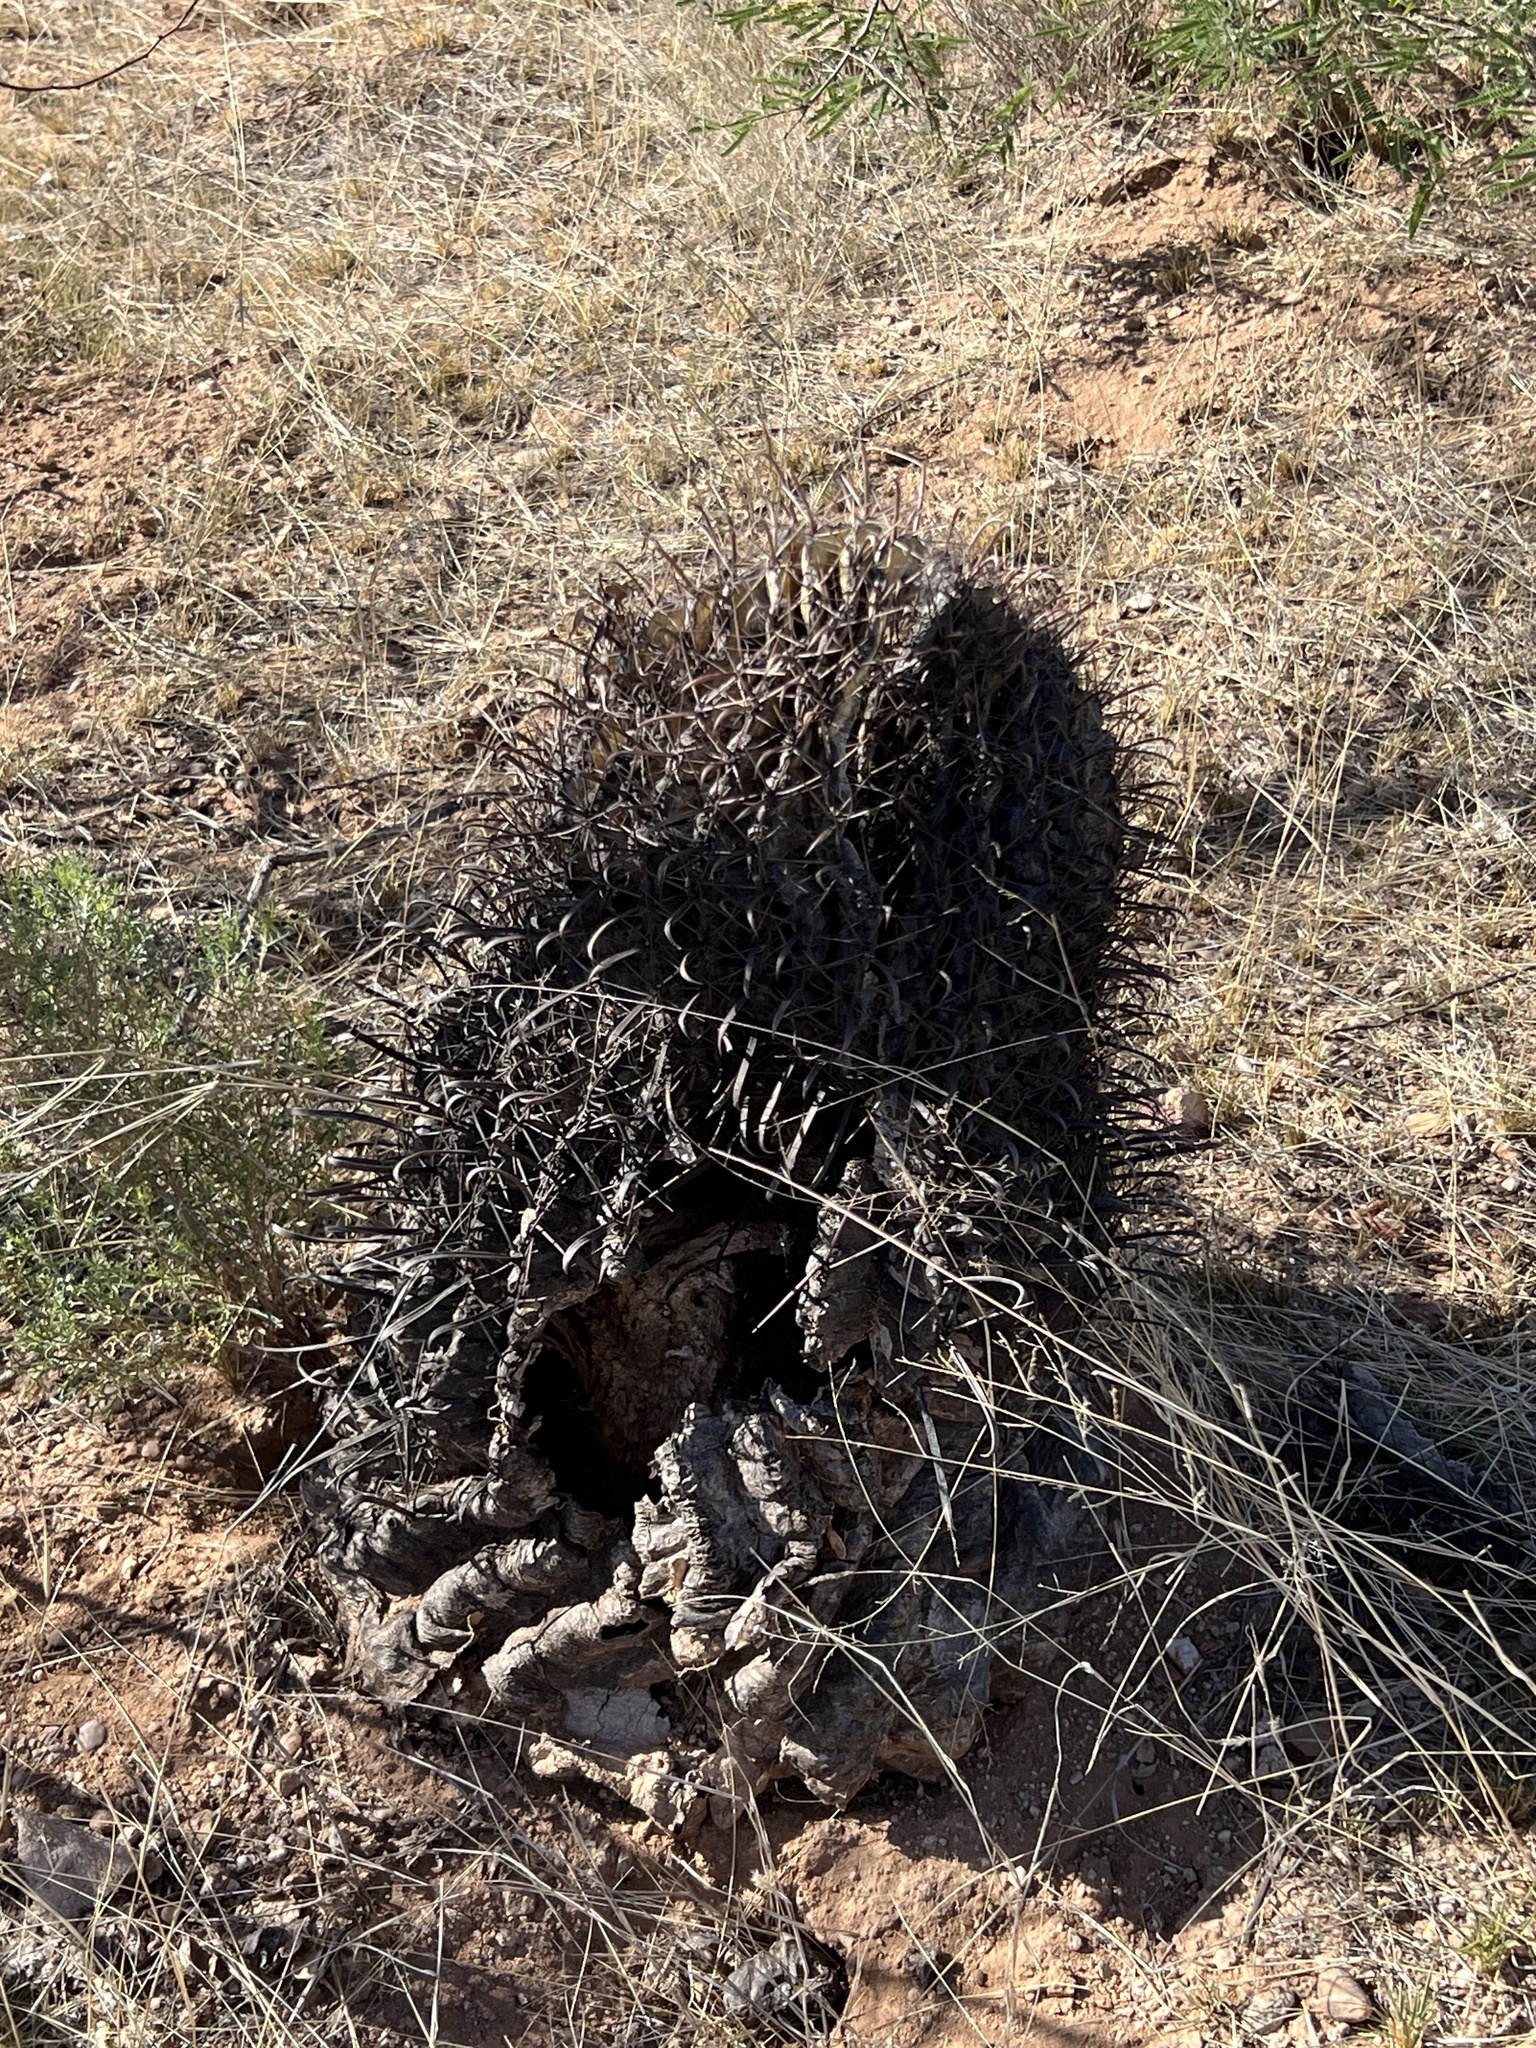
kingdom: Plantae
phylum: Tracheophyta
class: Magnoliopsida
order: Caryophyllales
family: Cactaceae
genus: Ferocactus
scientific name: Ferocactus wislizeni
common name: Candy barrel cactus
